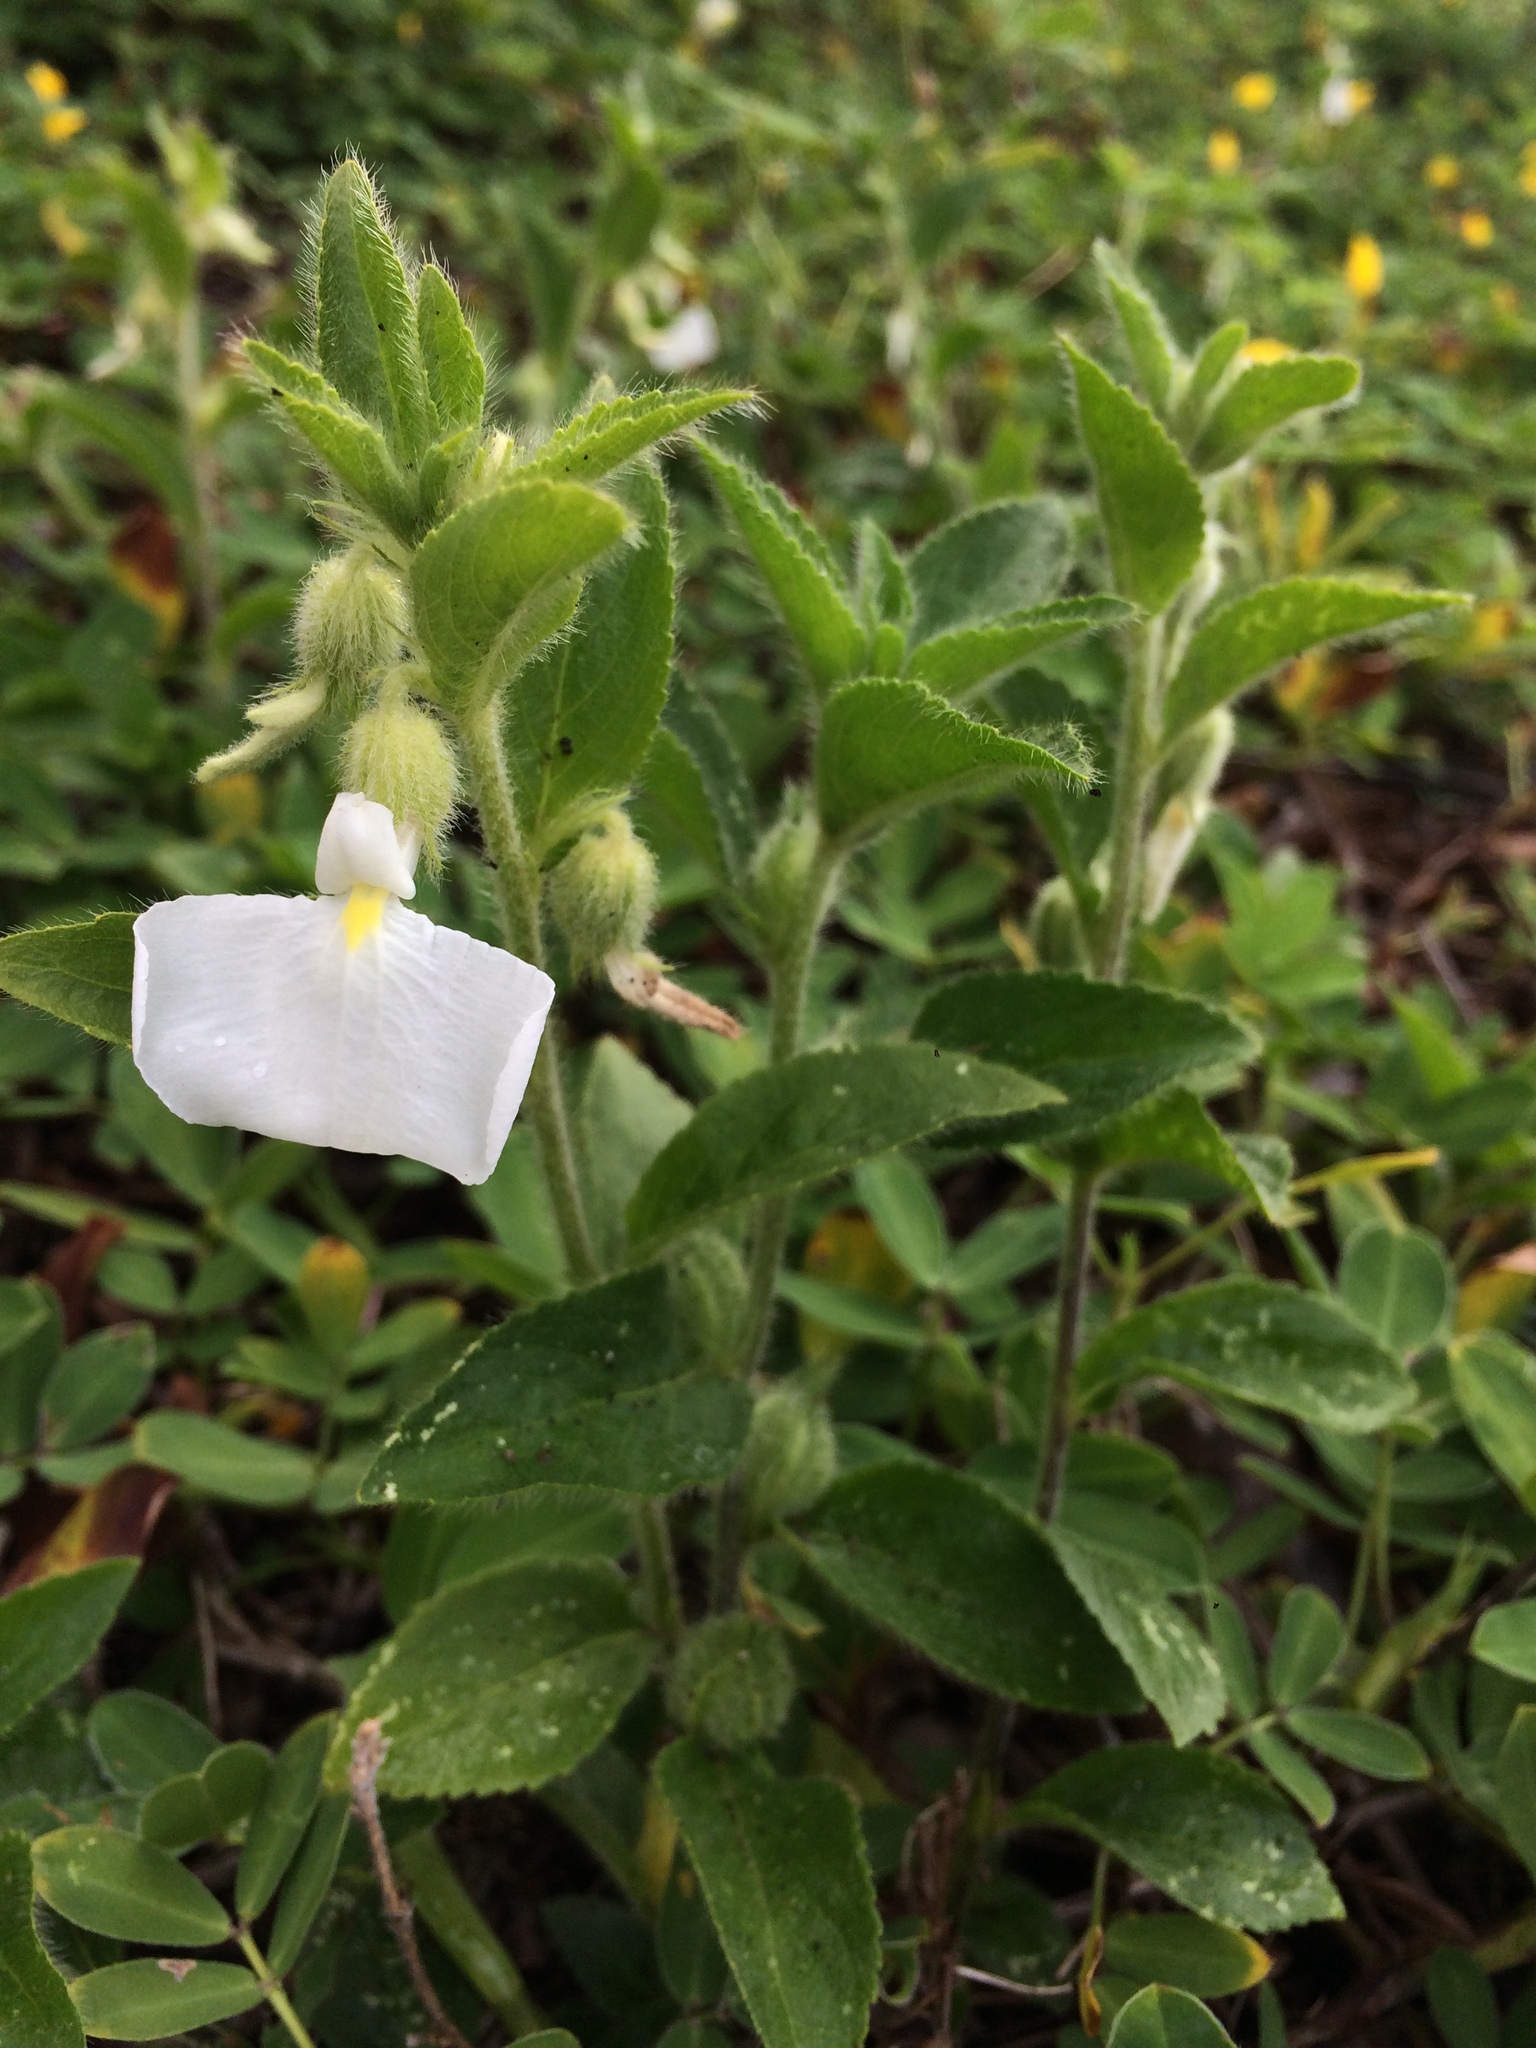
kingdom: Plantae
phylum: Tracheophyta
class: Magnoliopsida
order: Malpighiales
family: Violaceae
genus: Pombalia
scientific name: Pombalia calceolaria
